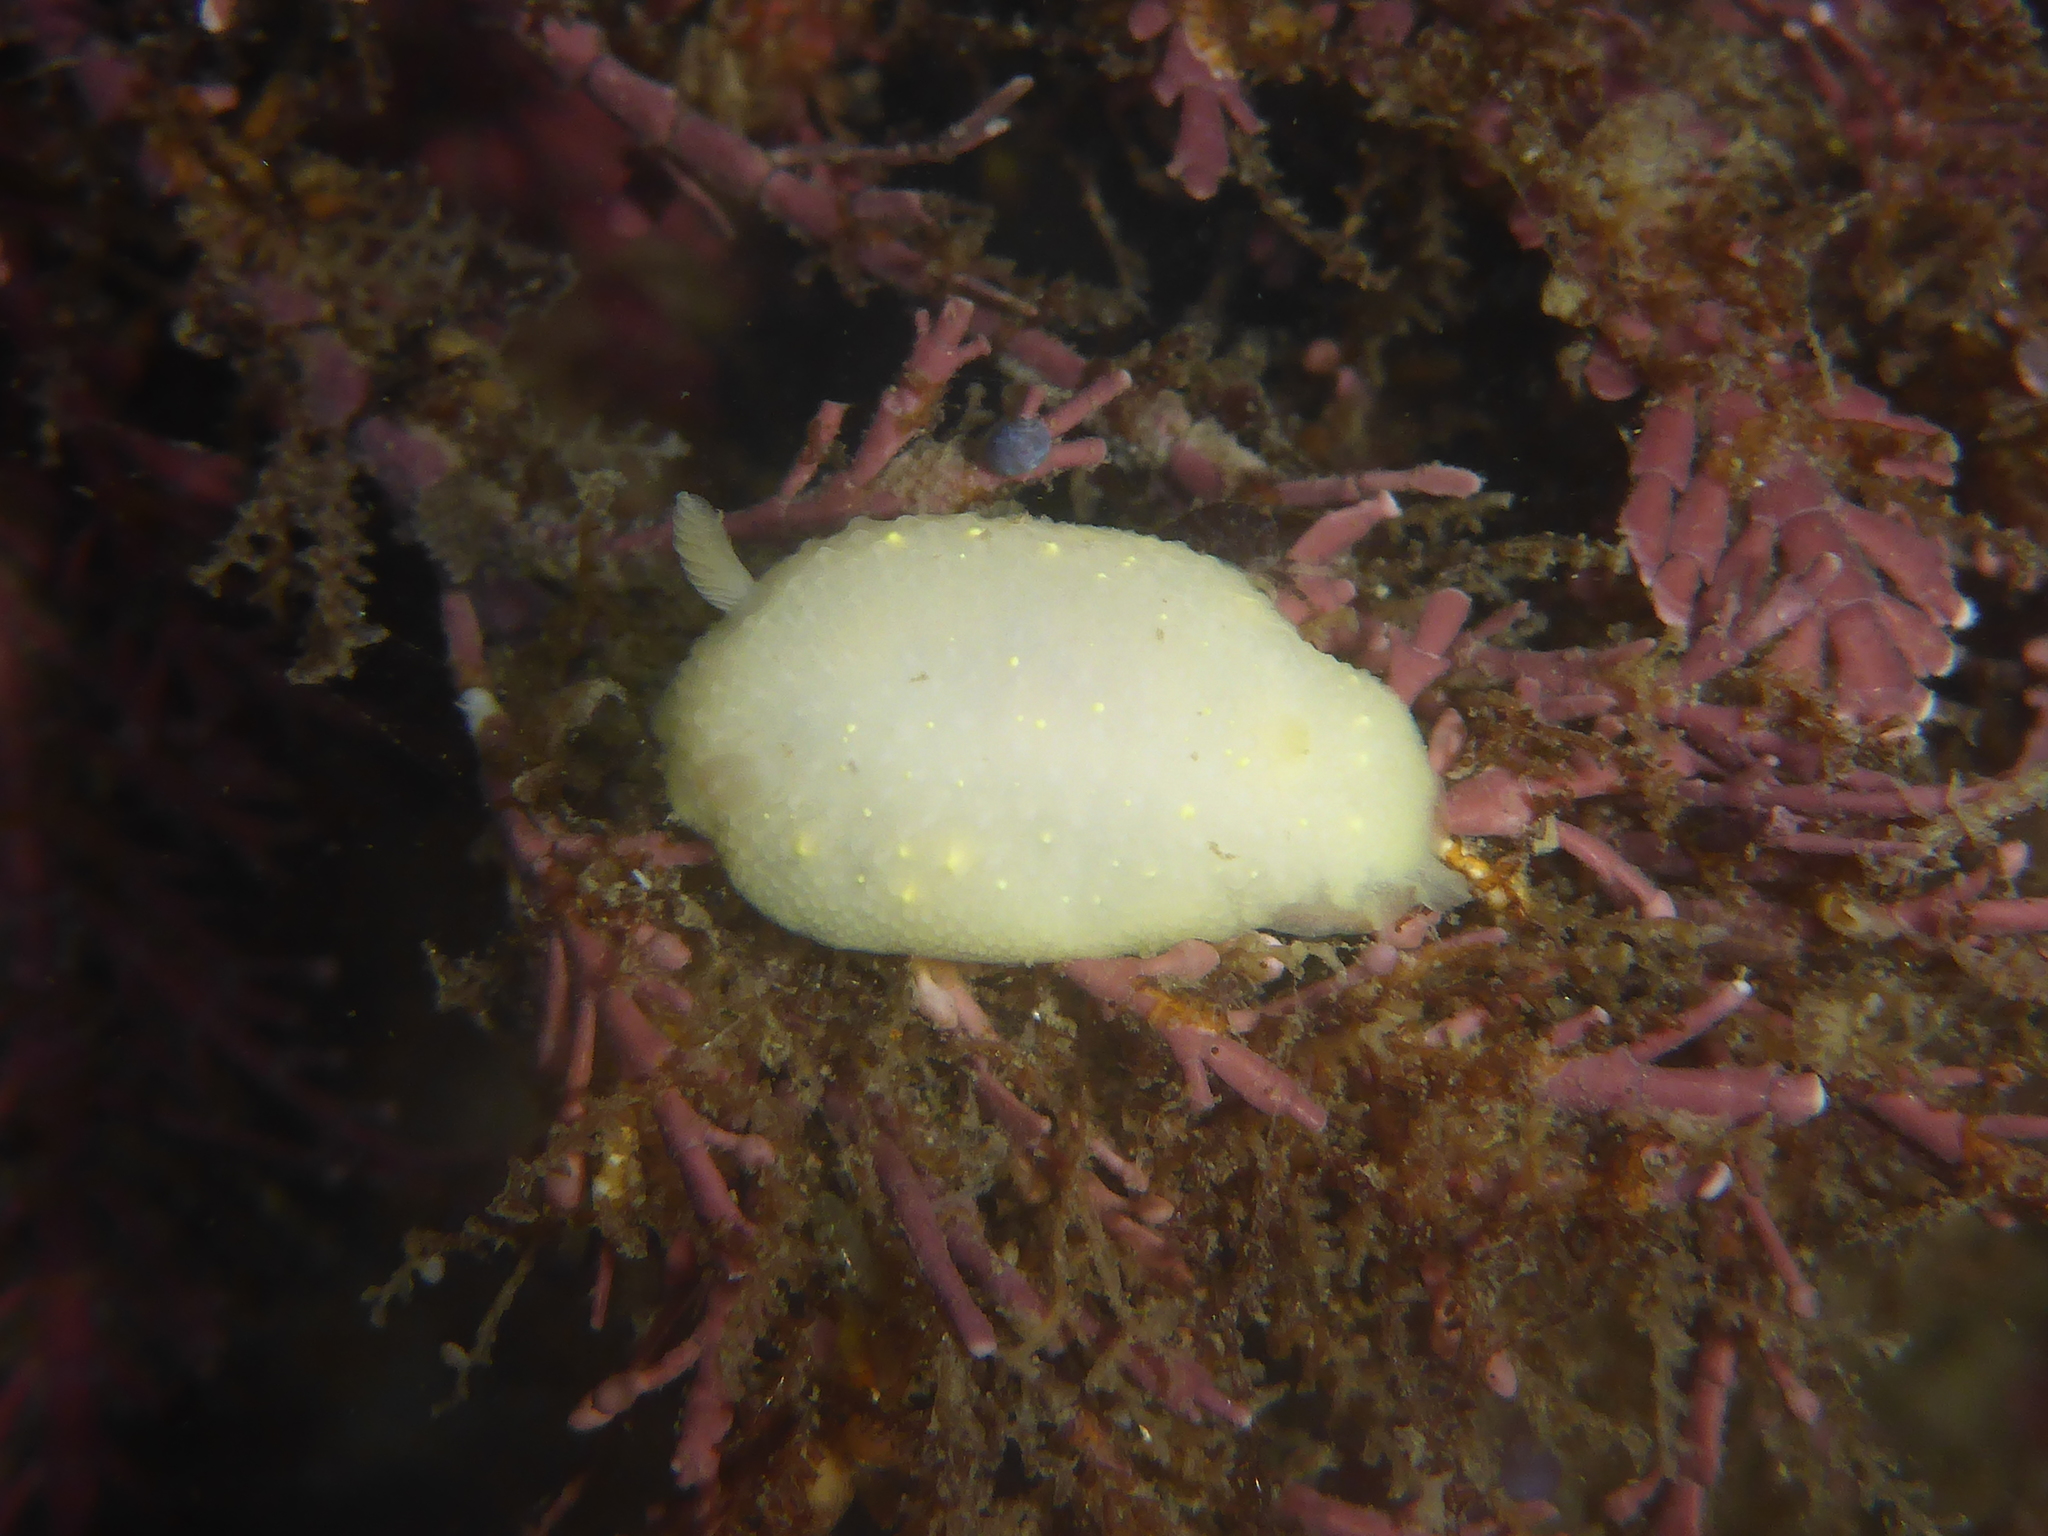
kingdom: Animalia
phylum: Mollusca
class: Gastropoda
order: Nudibranchia
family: Cadlinidae
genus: Cadlina
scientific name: Cadlina modesta
